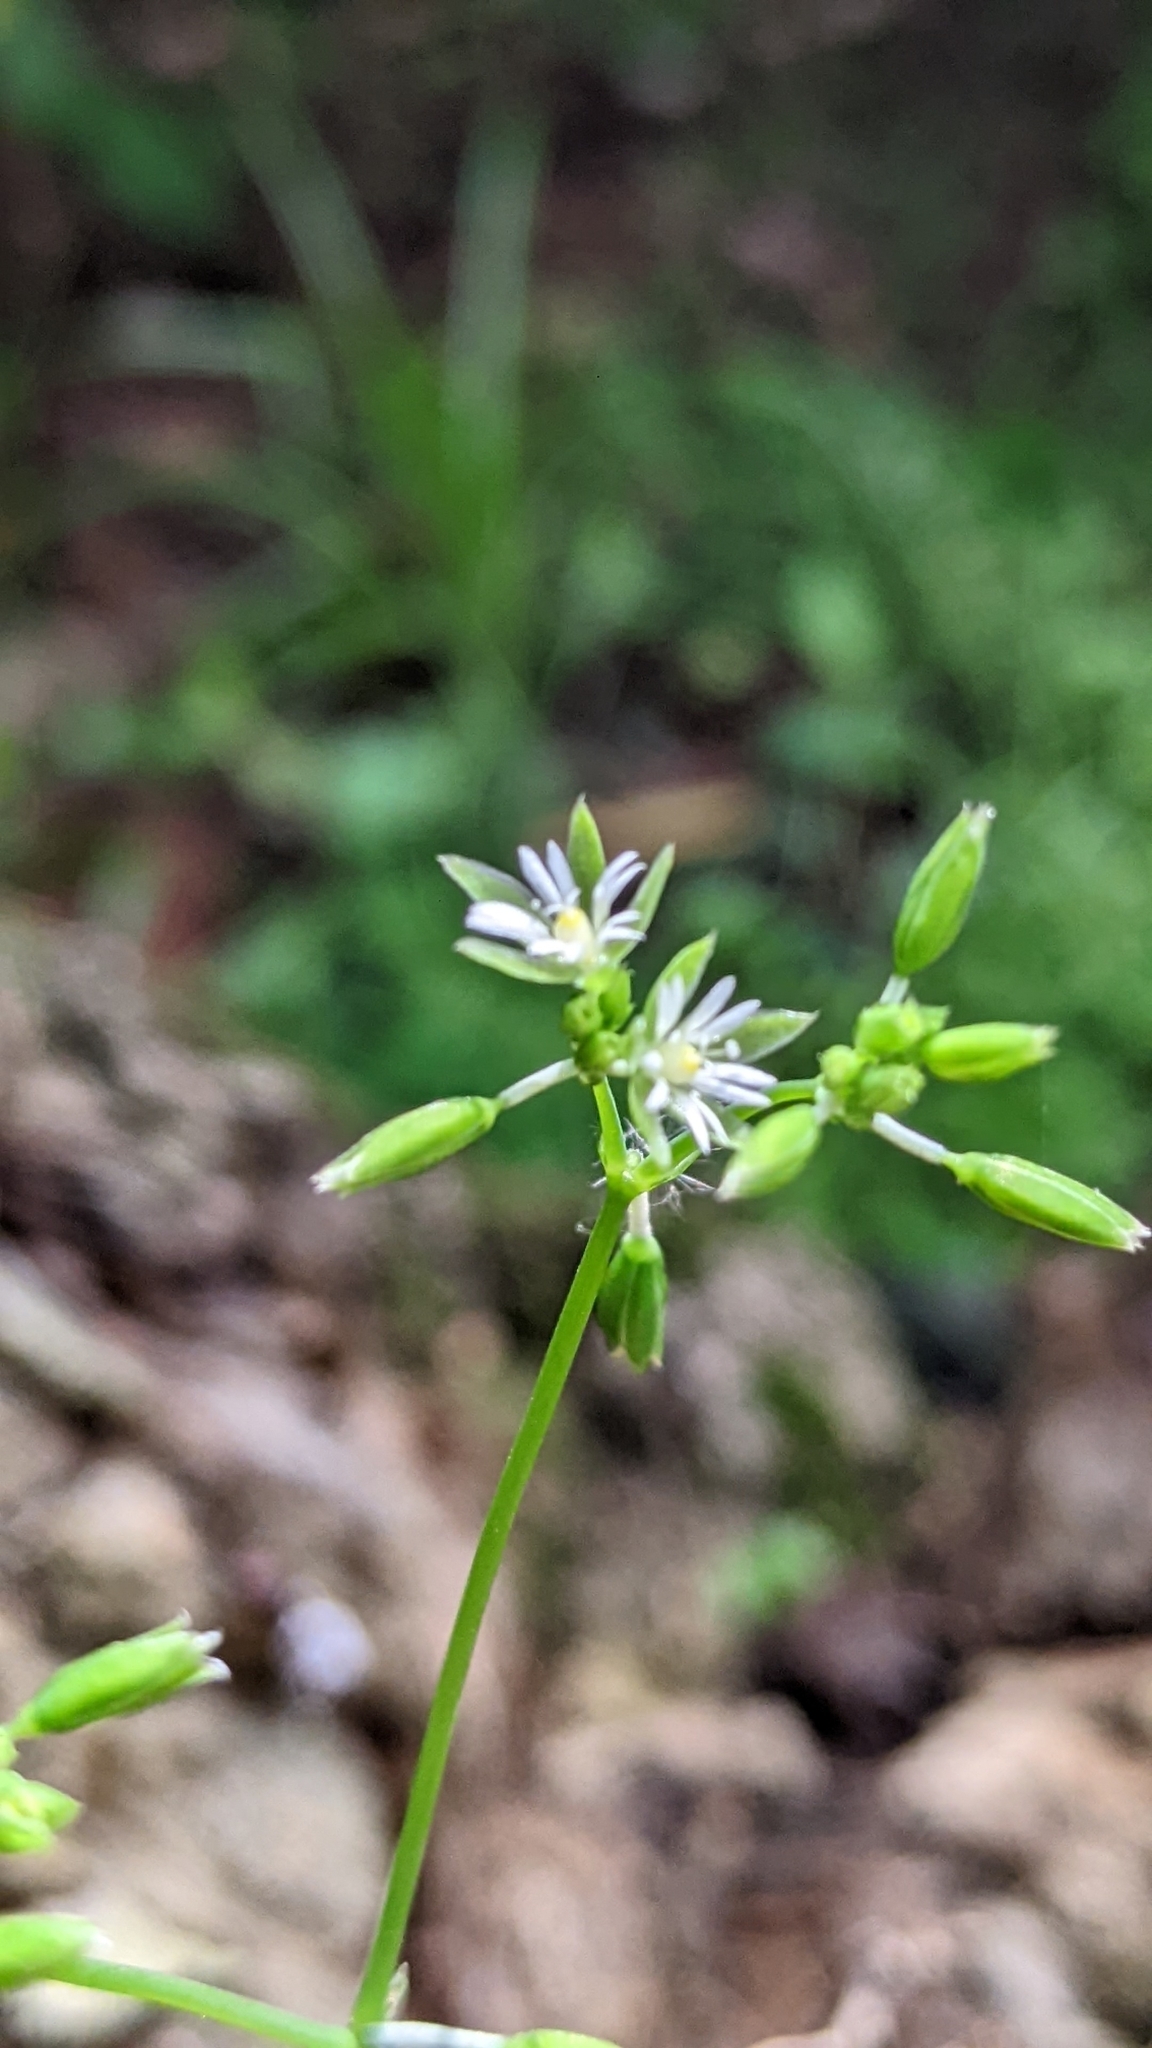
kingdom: Plantae
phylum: Tracheophyta
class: Magnoliopsida
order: Caryophyllales
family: Caryophyllaceae
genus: Drymaria
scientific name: Drymaria cordata
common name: Whitesnow
